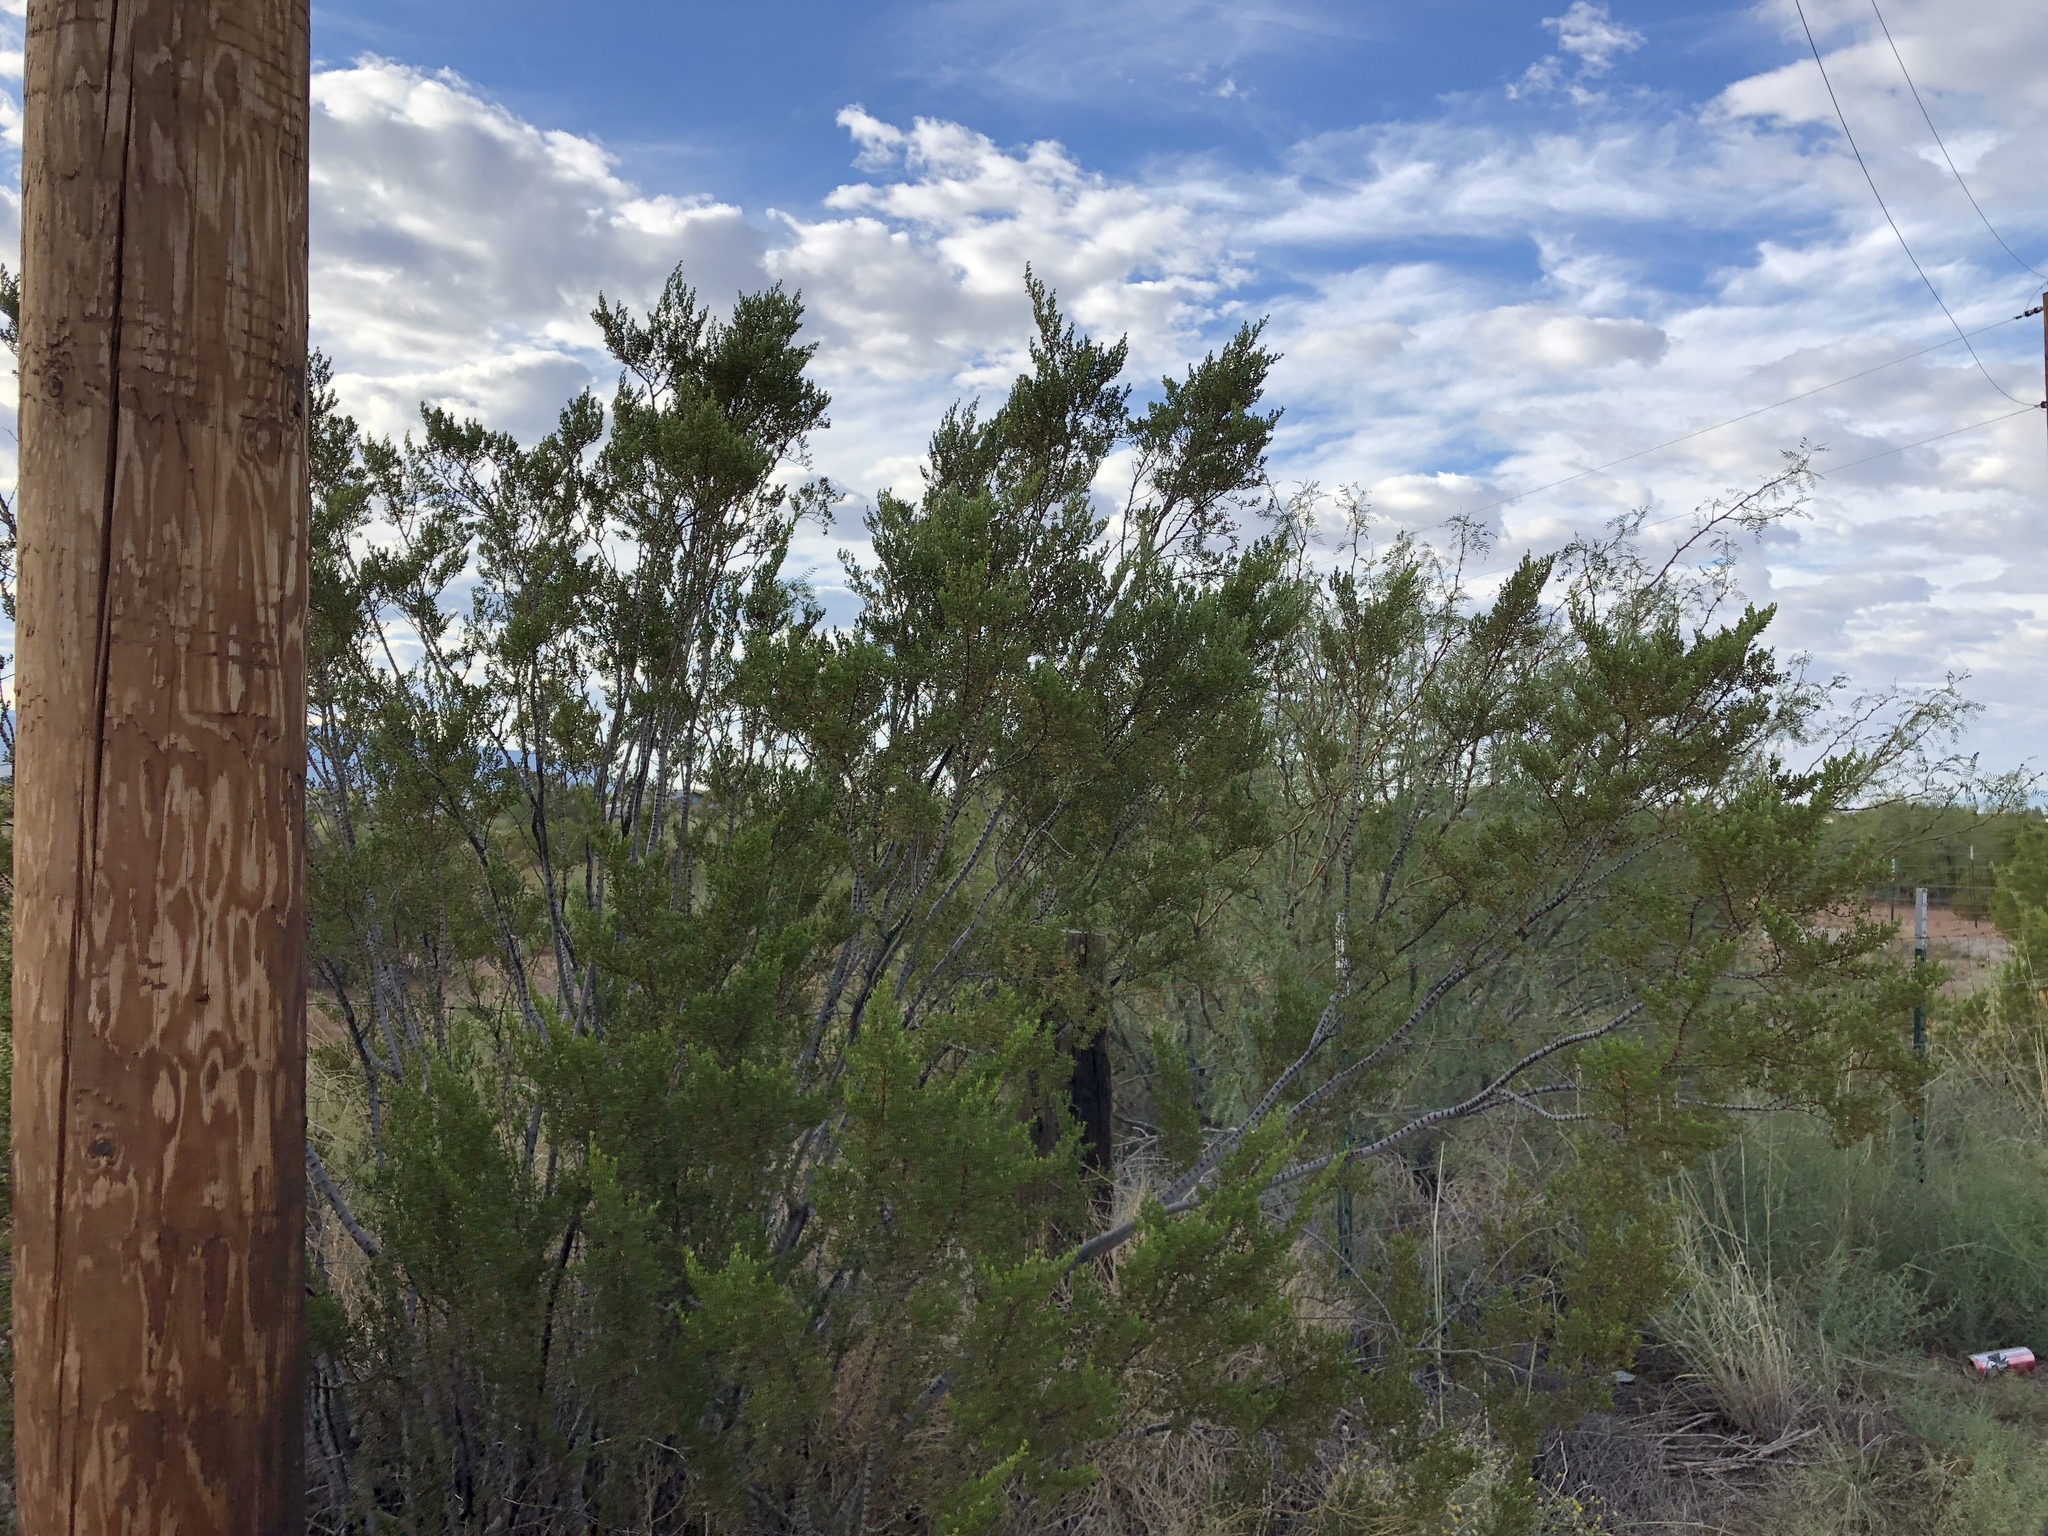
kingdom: Plantae
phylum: Tracheophyta
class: Magnoliopsida
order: Zygophyllales
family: Zygophyllaceae
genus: Larrea
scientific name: Larrea tridentata
